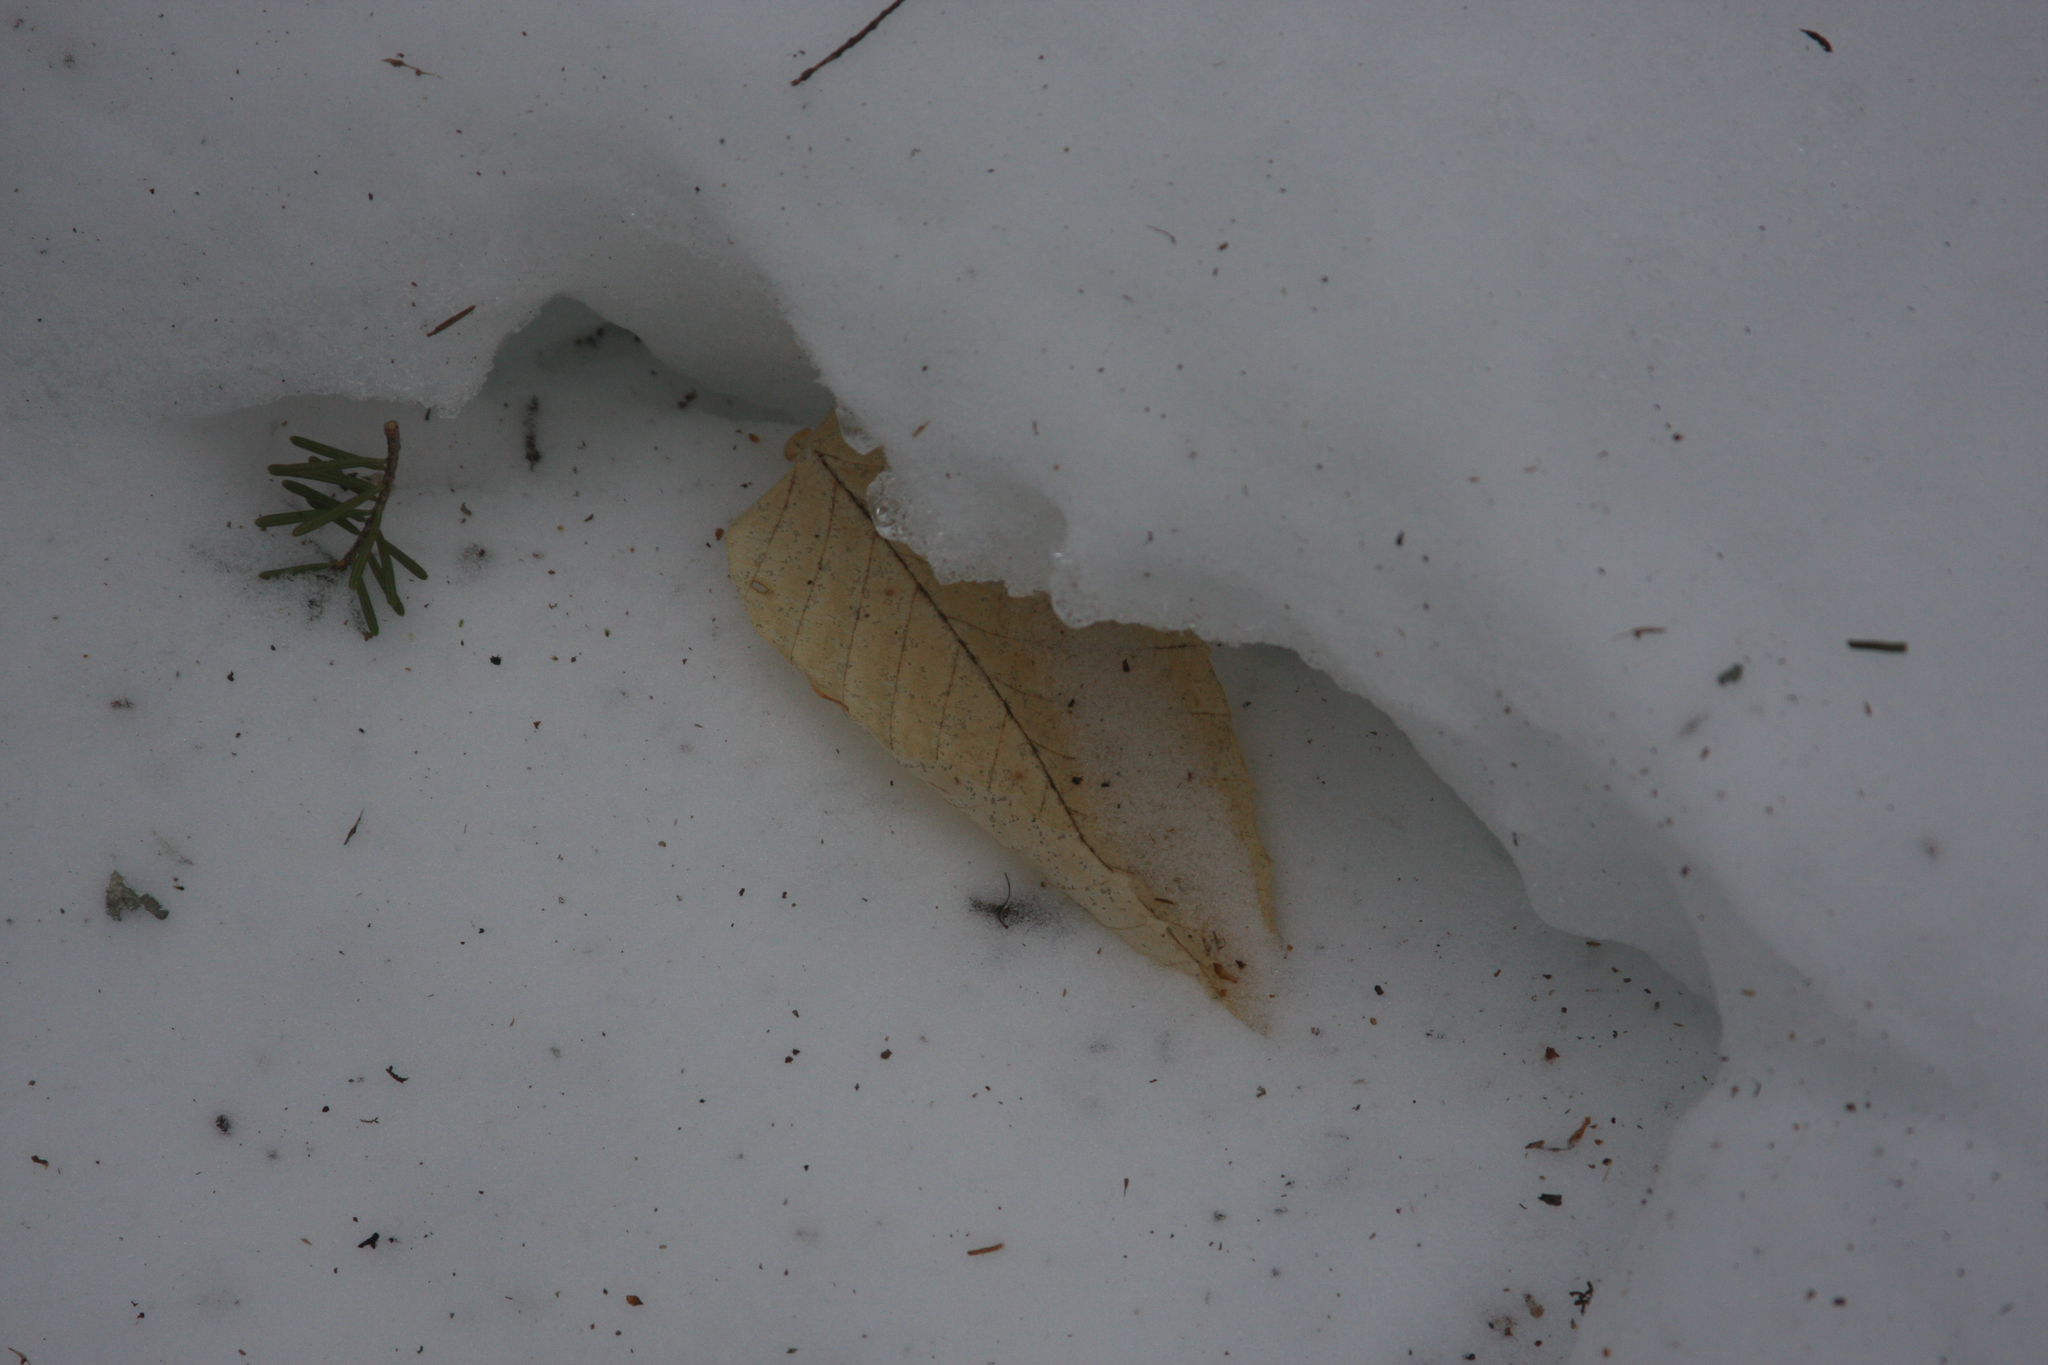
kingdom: Plantae
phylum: Tracheophyta
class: Magnoliopsida
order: Fagales
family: Fagaceae
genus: Fagus
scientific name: Fagus grandifolia
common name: American beech
